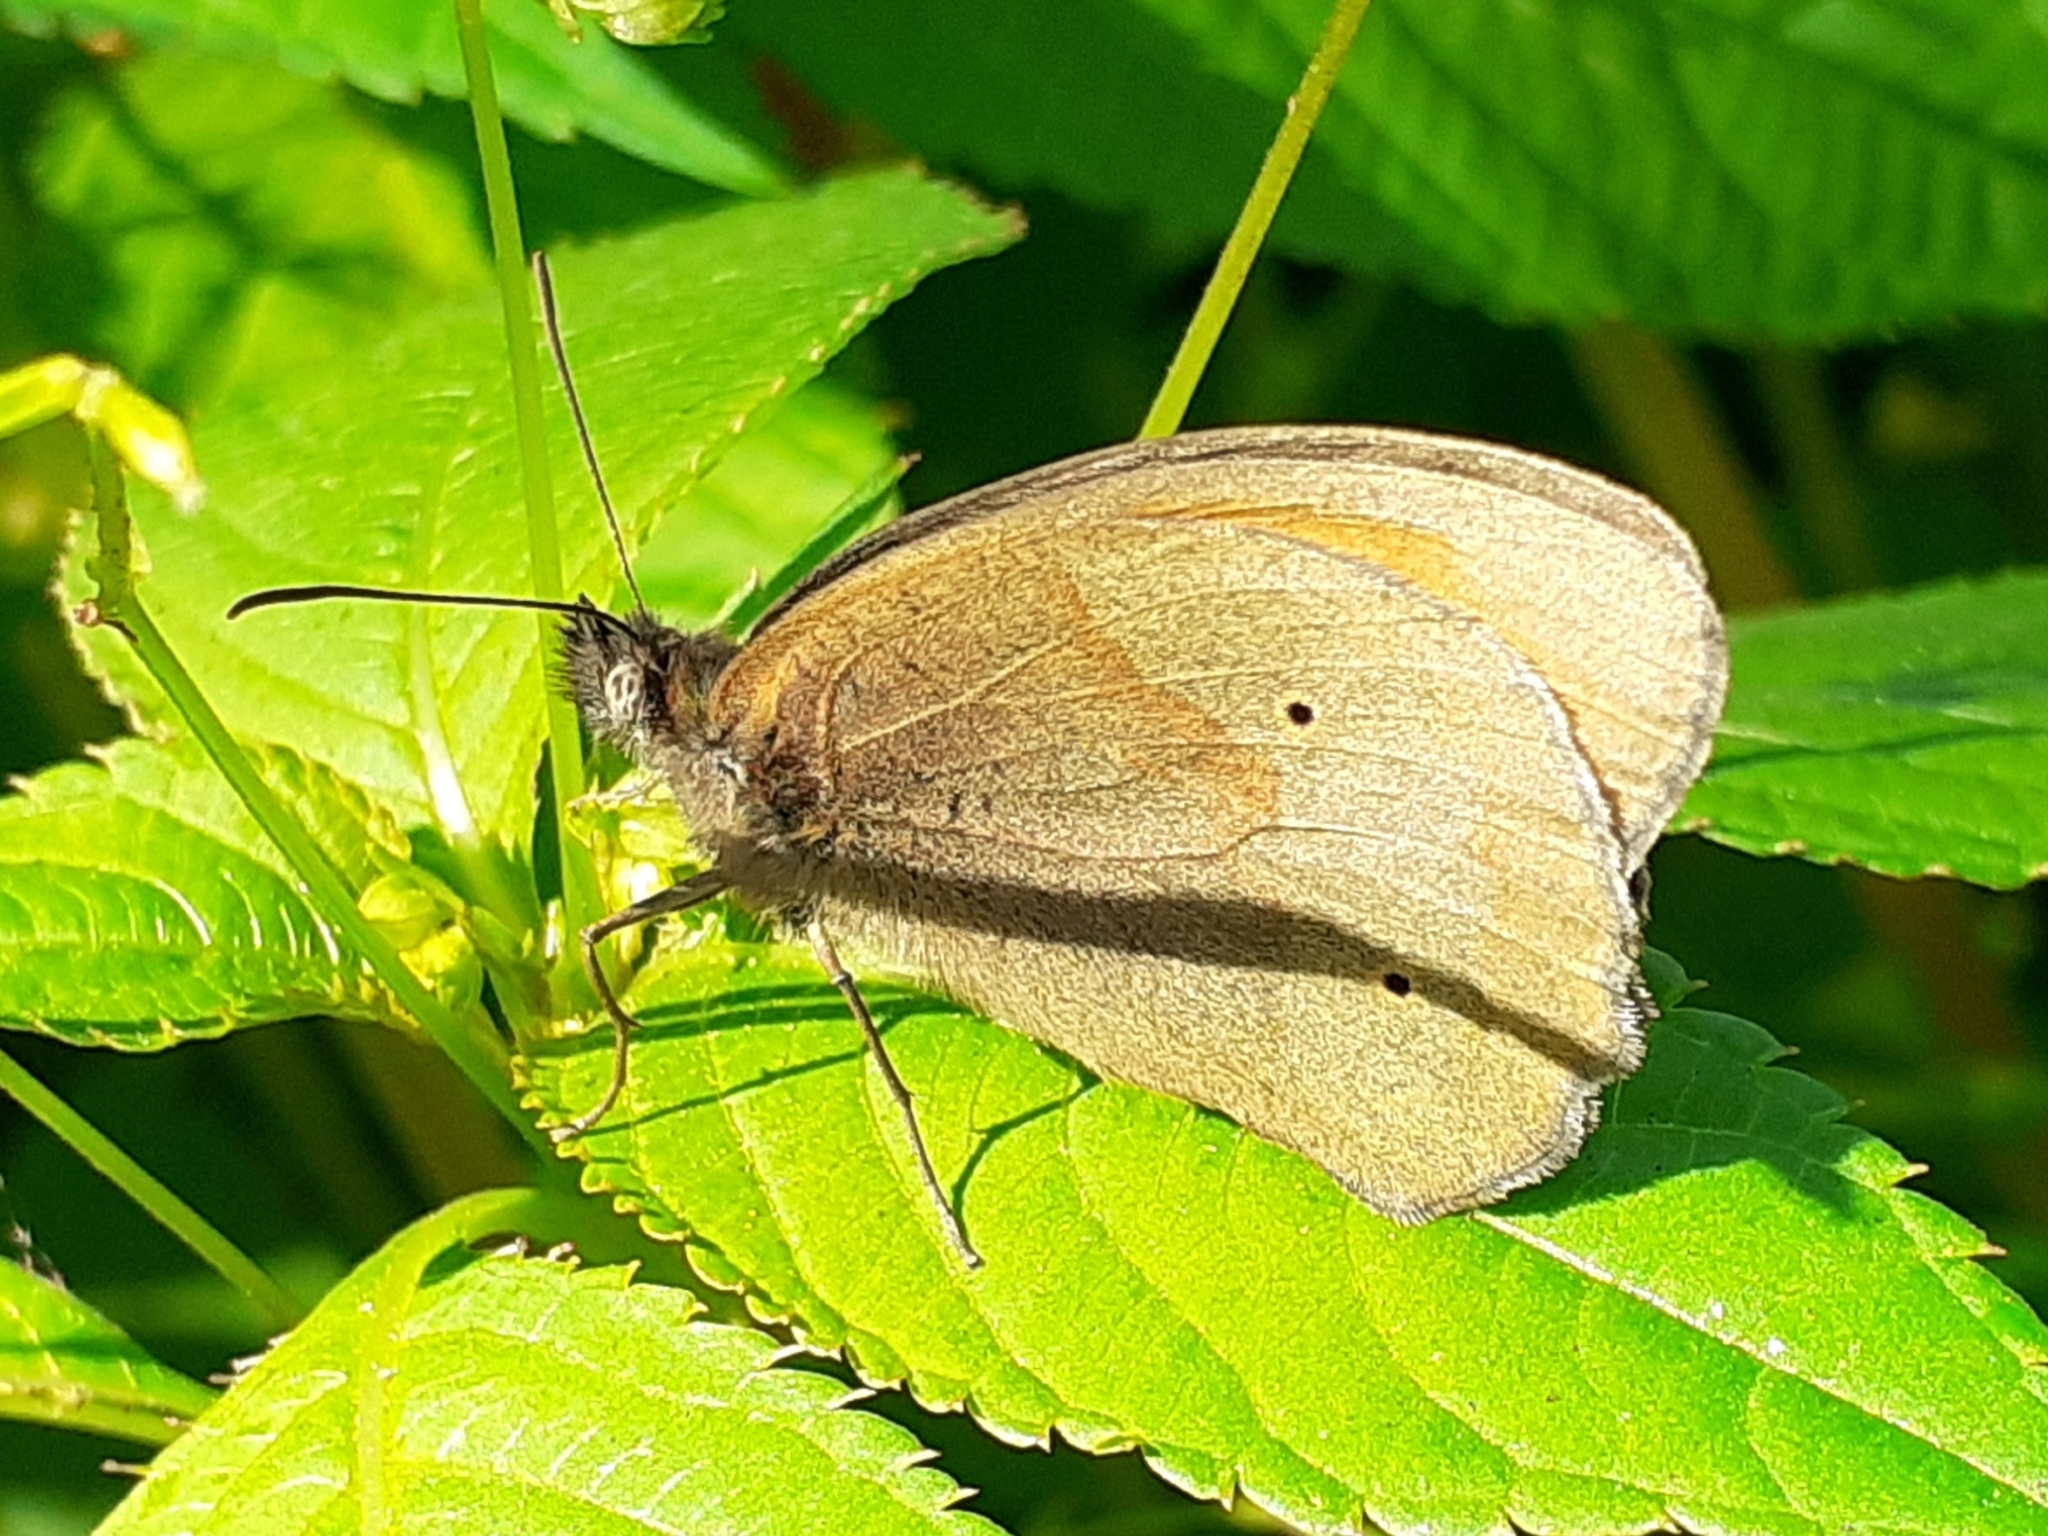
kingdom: Animalia
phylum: Arthropoda
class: Insecta
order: Lepidoptera
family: Nymphalidae
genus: Maniola
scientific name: Maniola jurtina
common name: Meadow brown
